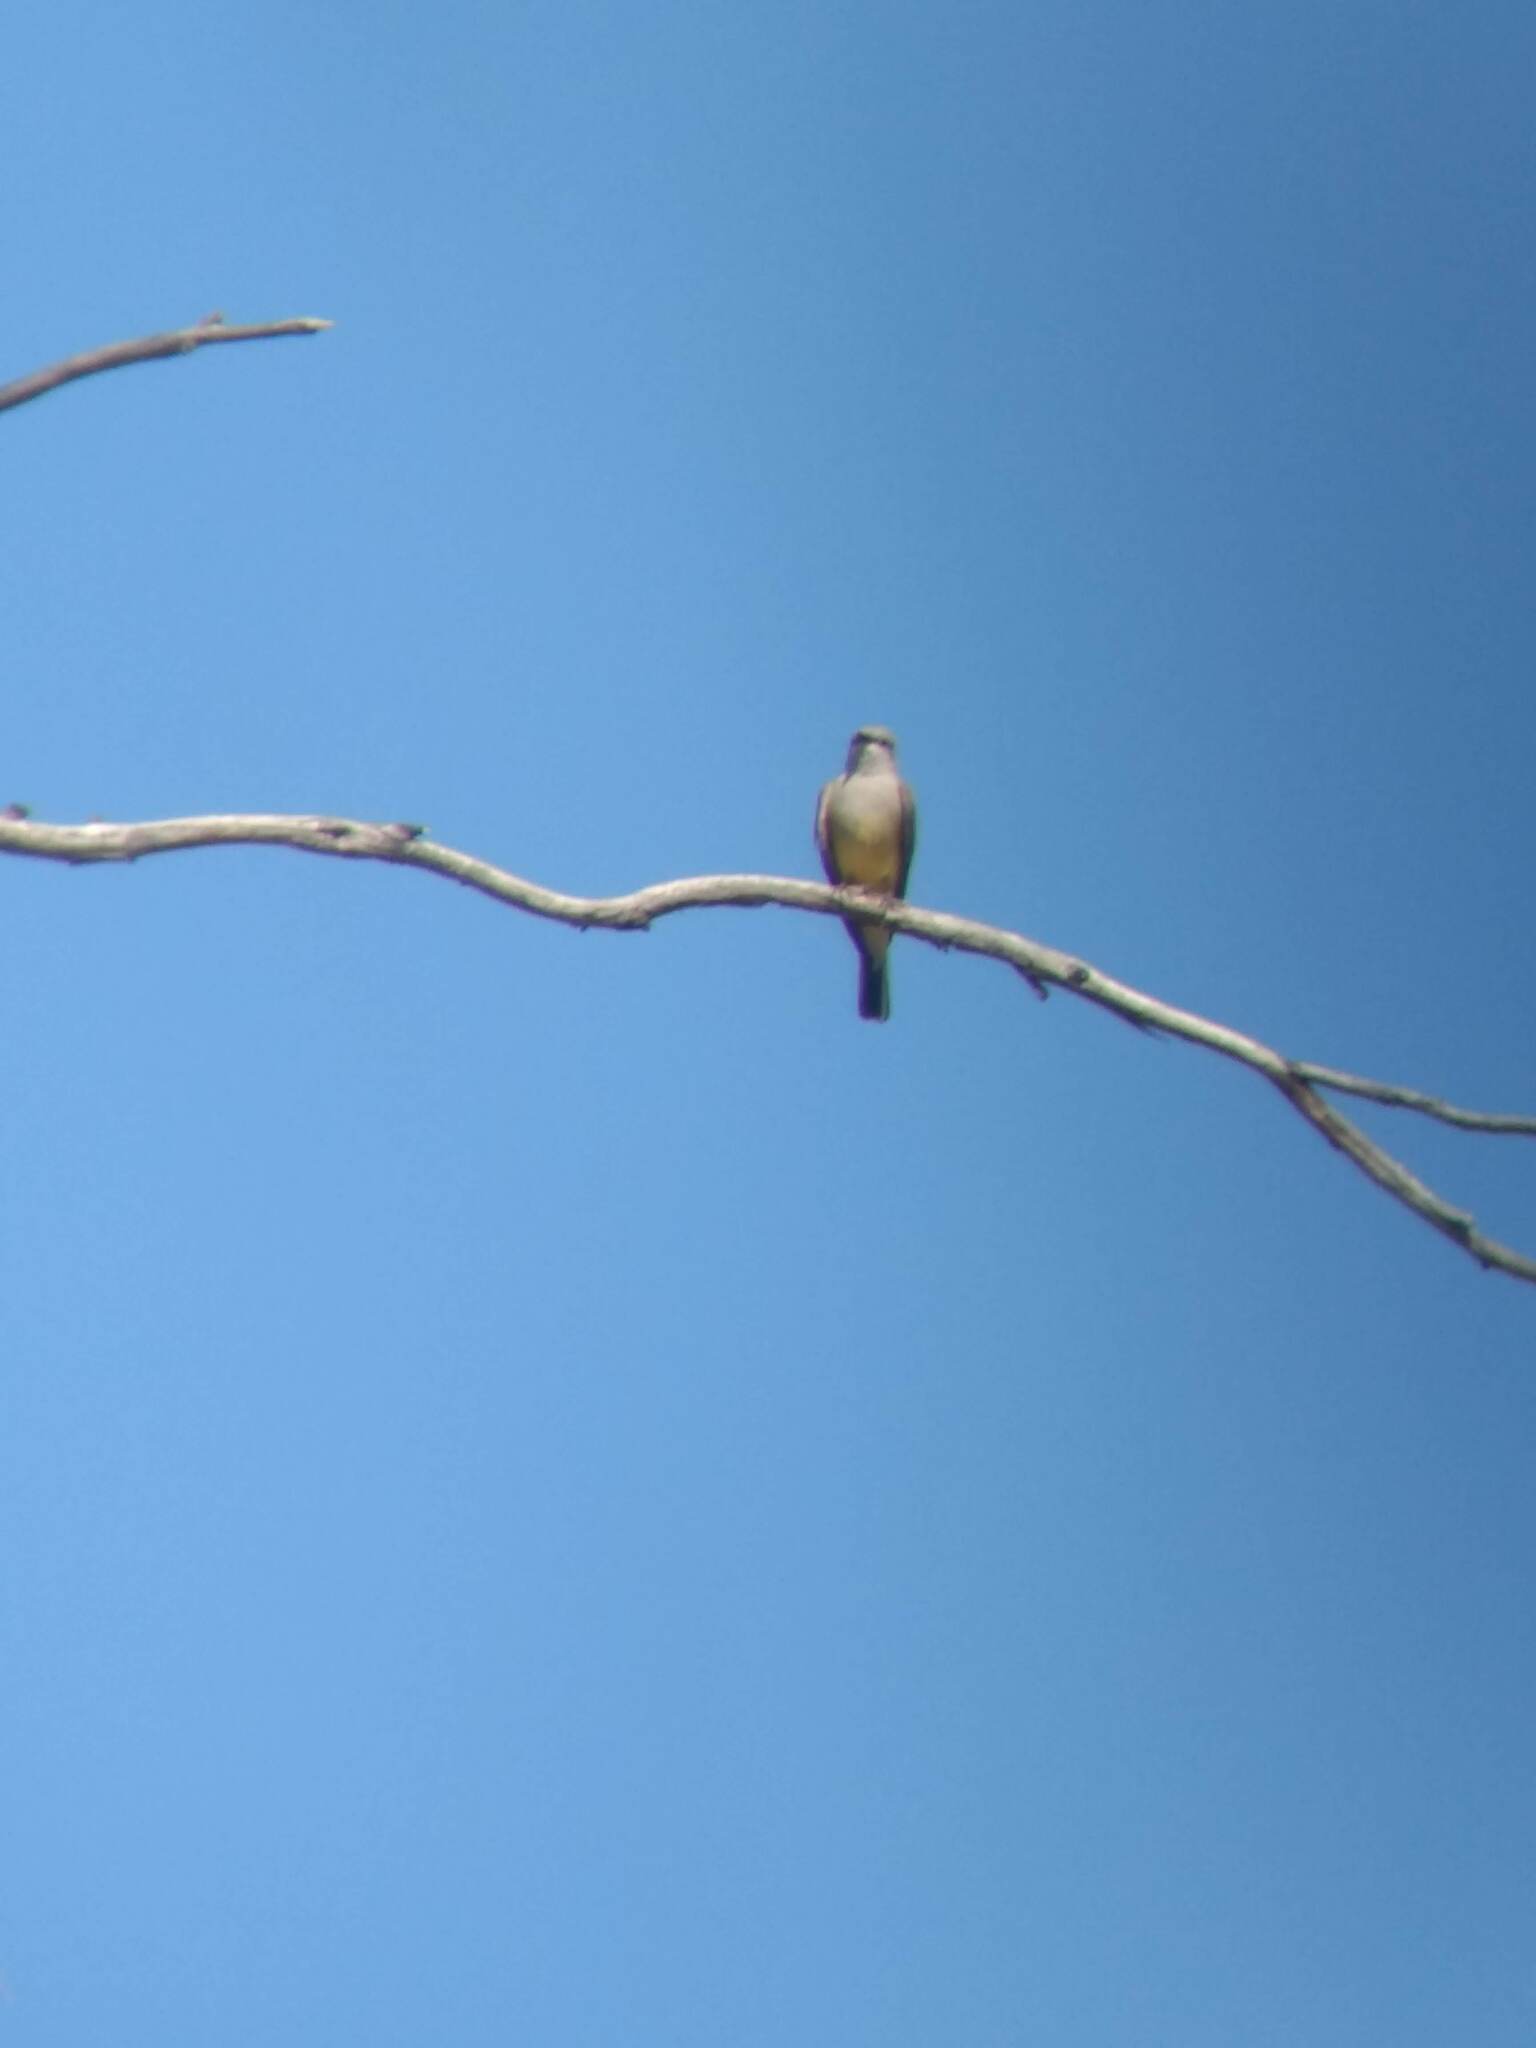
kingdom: Animalia
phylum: Chordata
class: Aves
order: Passeriformes
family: Tyrannidae
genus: Tyrannus
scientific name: Tyrannus verticalis
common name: Western kingbird
